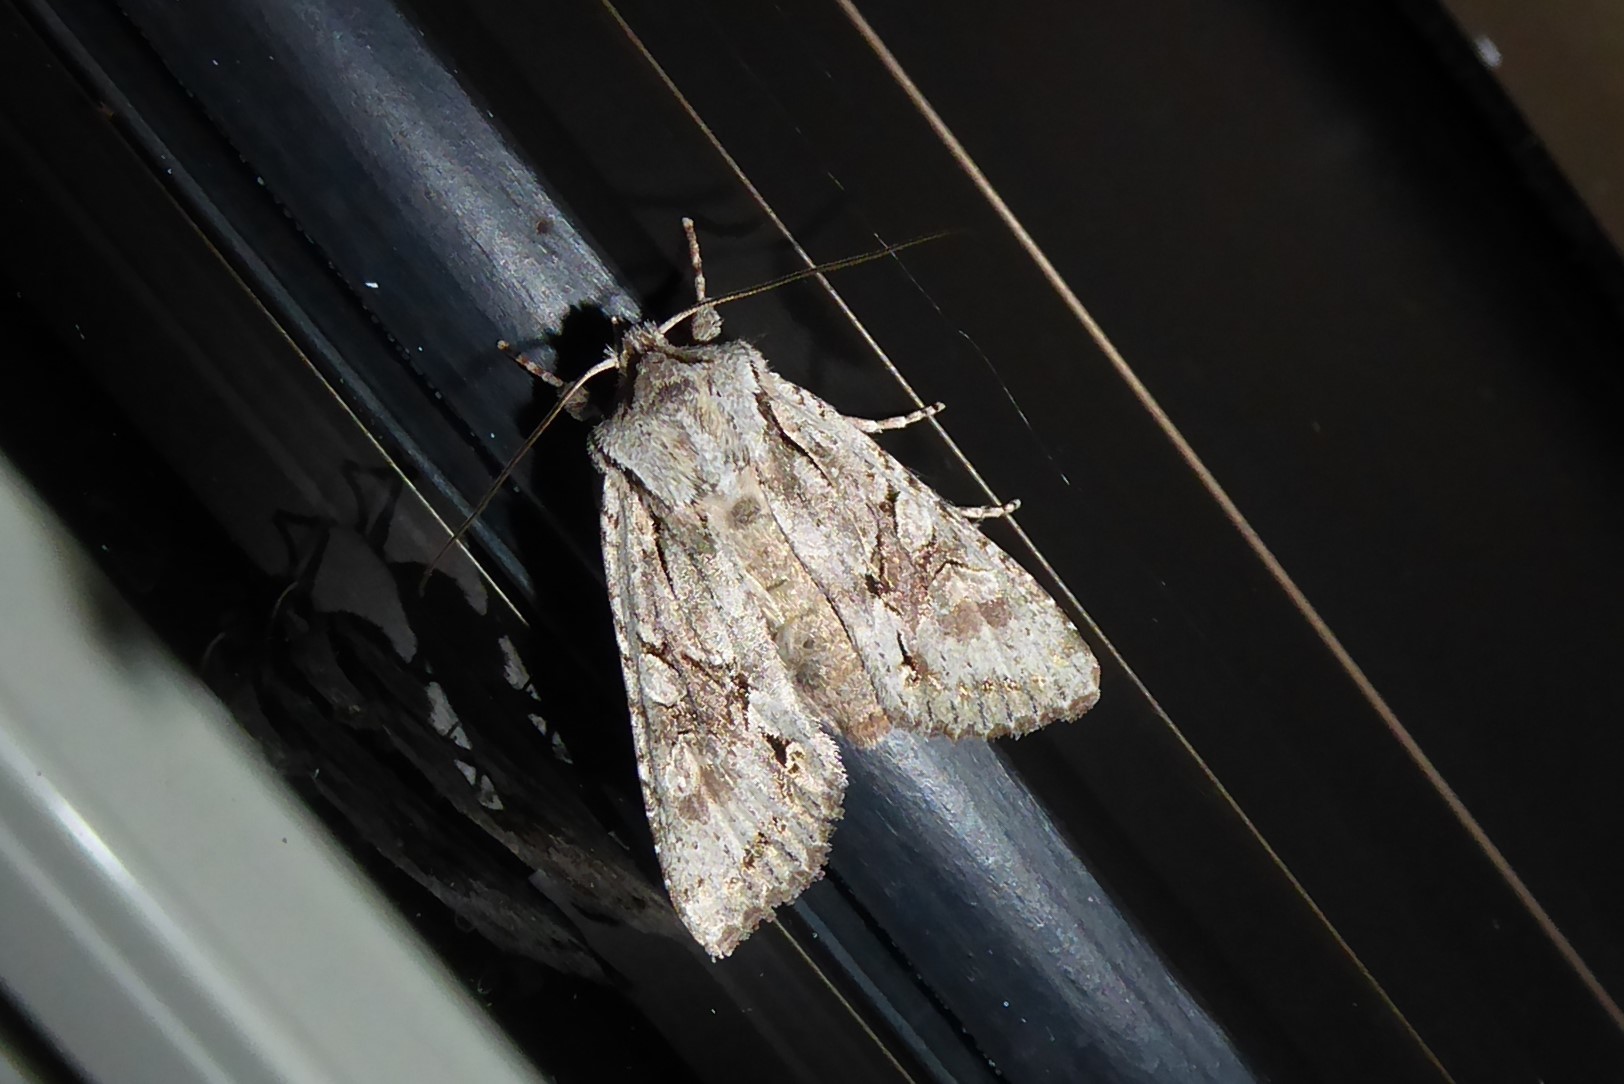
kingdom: Animalia
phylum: Arthropoda
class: Insecta
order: Lepidoptera
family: Noctuidae
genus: Ichneutica
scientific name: Ichneutica mutans
